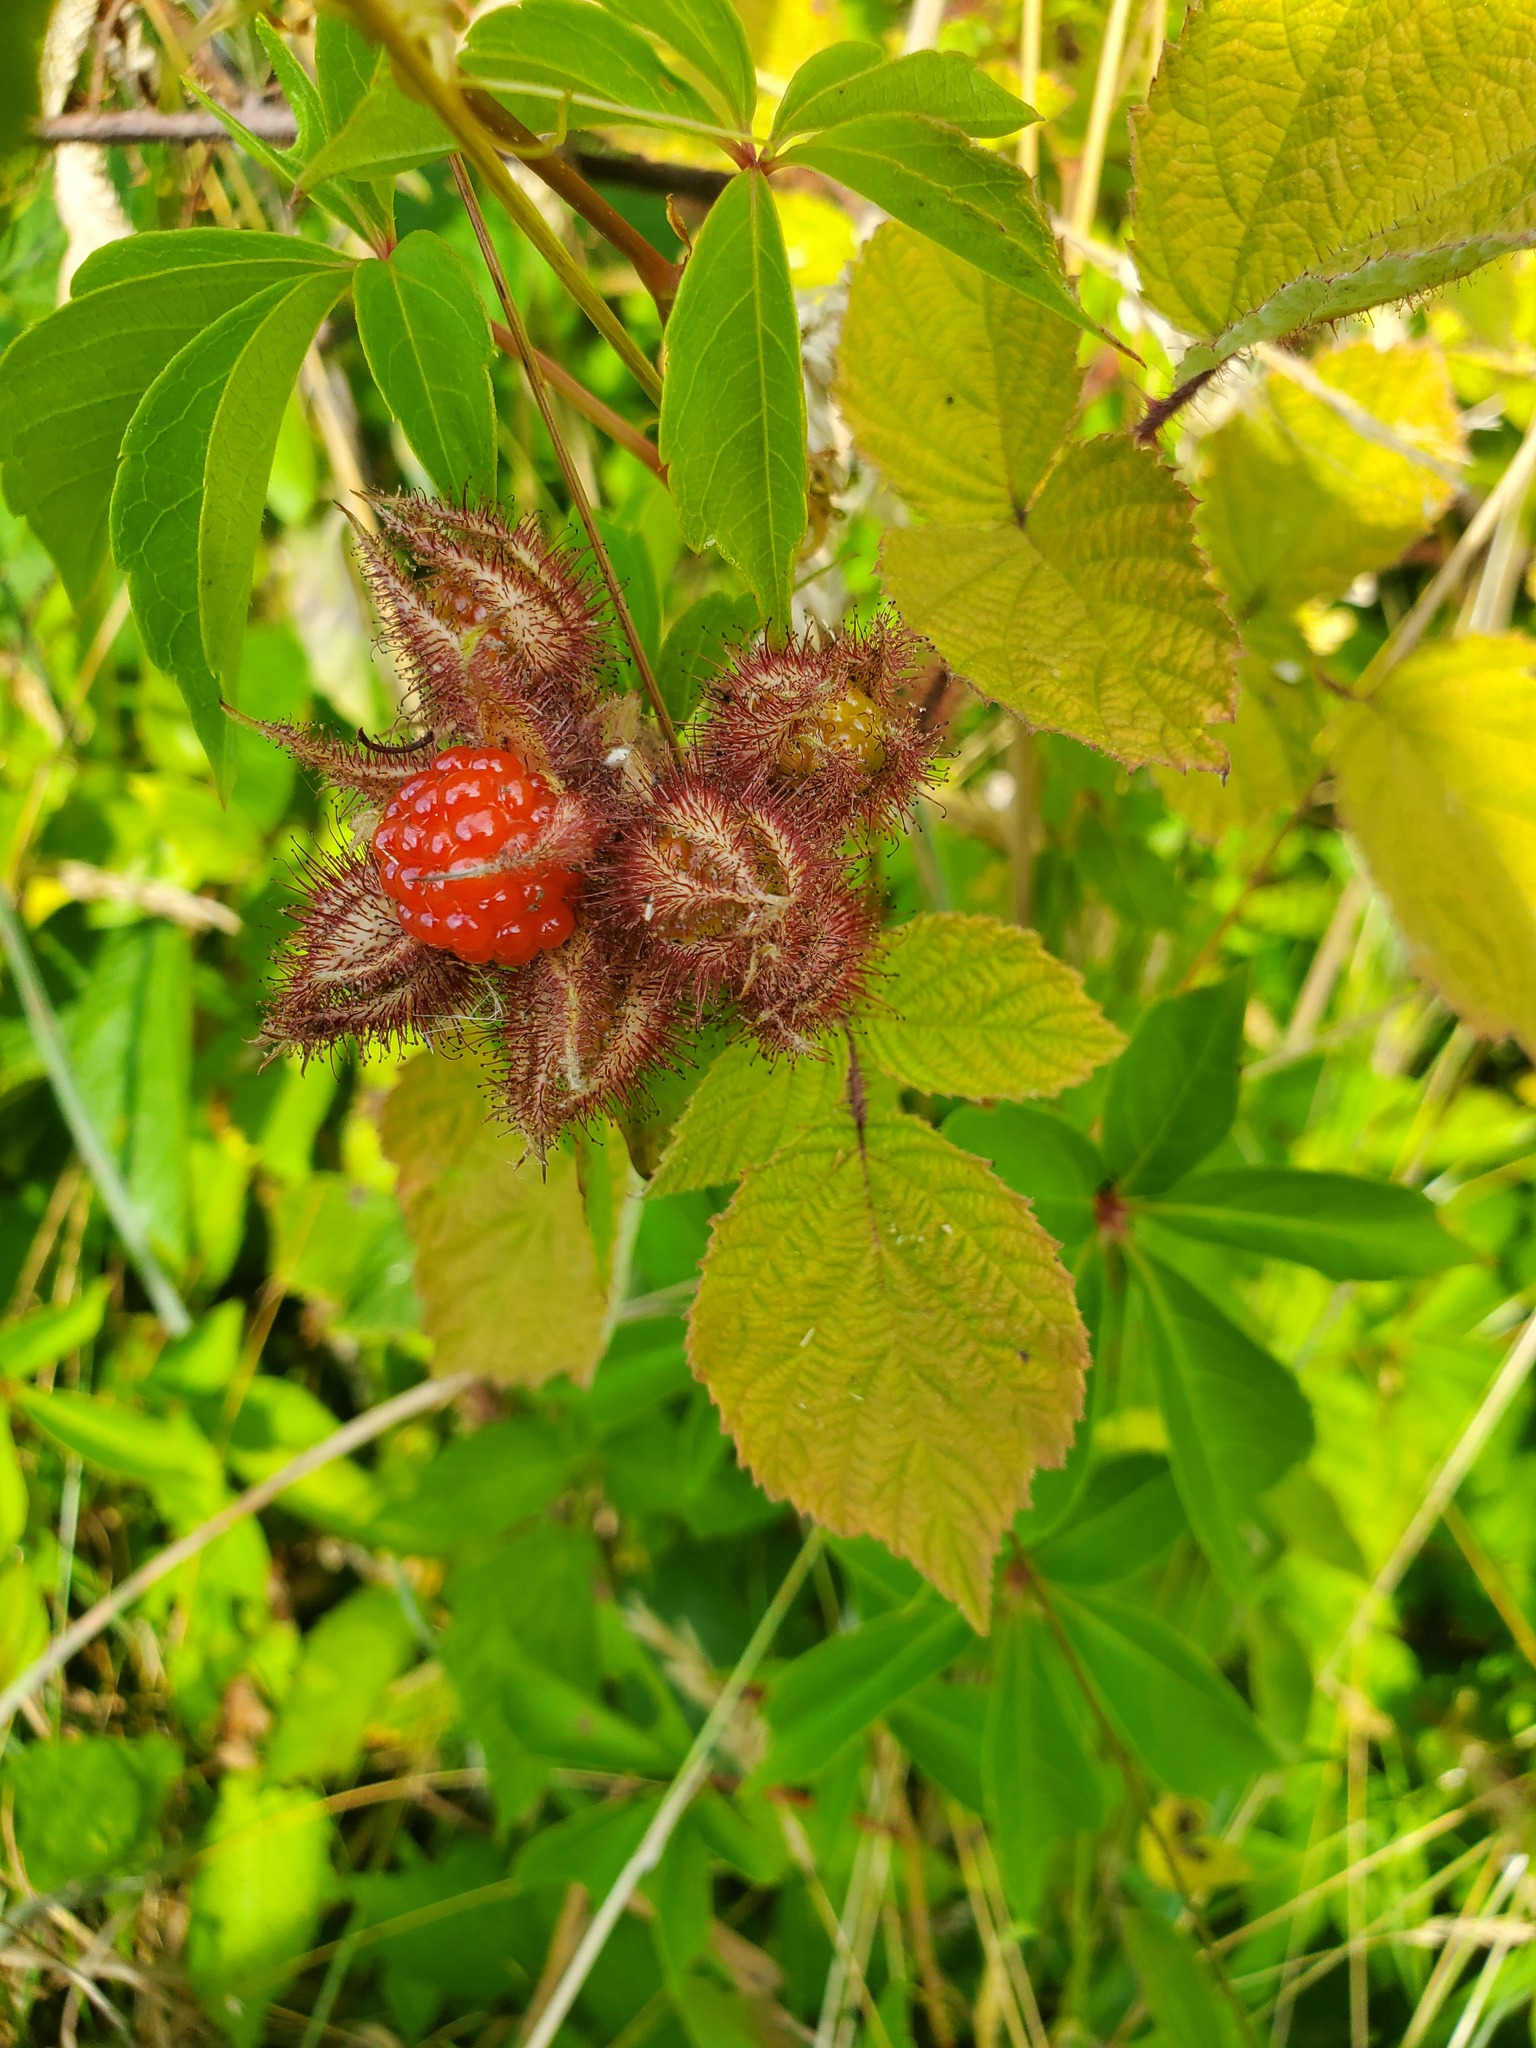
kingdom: Plantae
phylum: Tracheophyta
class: Magnoliopsida
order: Rosales
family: Rosaceae
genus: Rubus
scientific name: Rubus phoenicolasius
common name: Japanese wineberry
